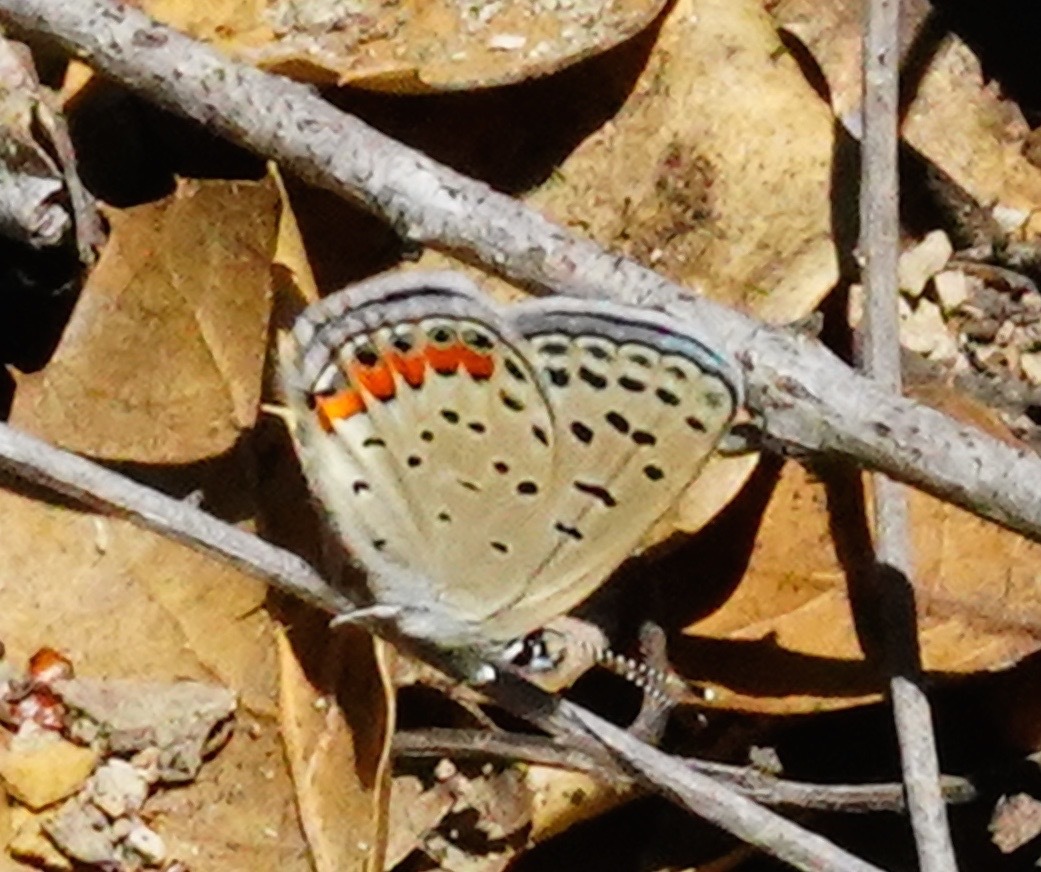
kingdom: Animalia
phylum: Arthropoda
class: Insecta
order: Lepidoptera
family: Lycaenidae
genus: Icaricia
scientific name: Icaricia acmon
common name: Acmon blue
